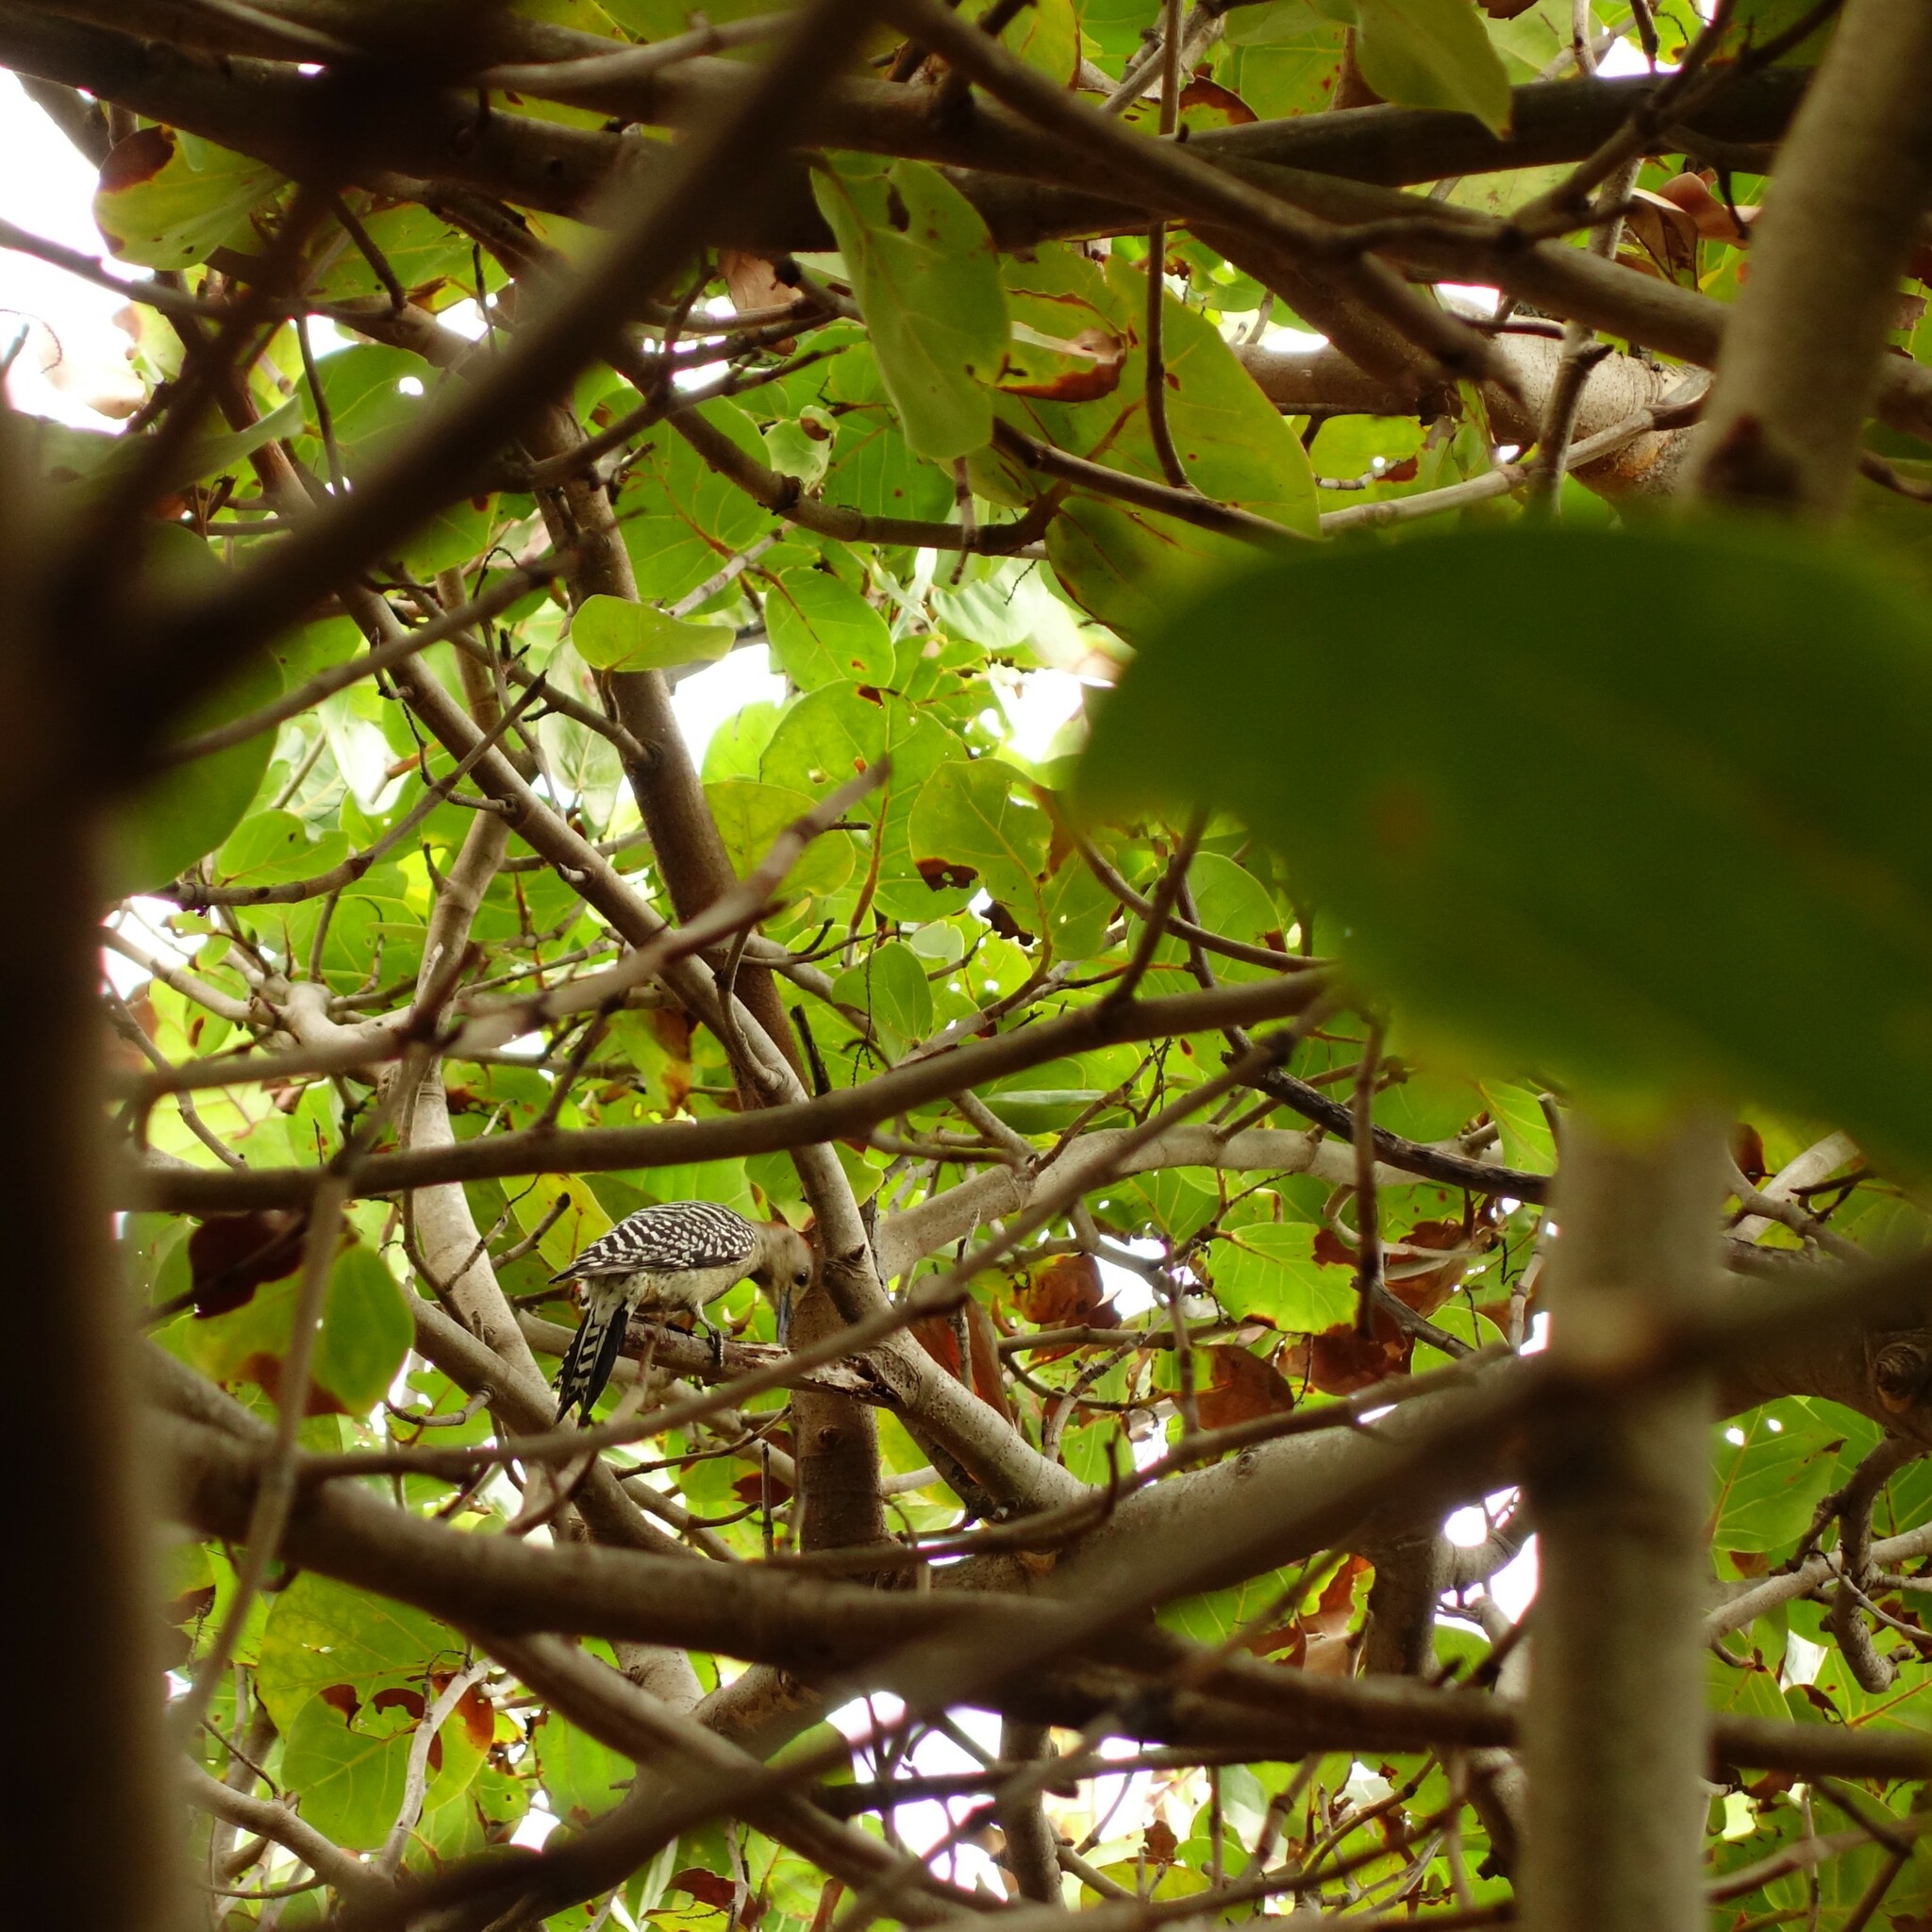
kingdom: Animalia
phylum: Chordata
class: Aves
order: Piciformes
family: Picidae
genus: Melanerpes
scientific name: Melanerpes carolinus
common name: Red-bellied woodpecker
